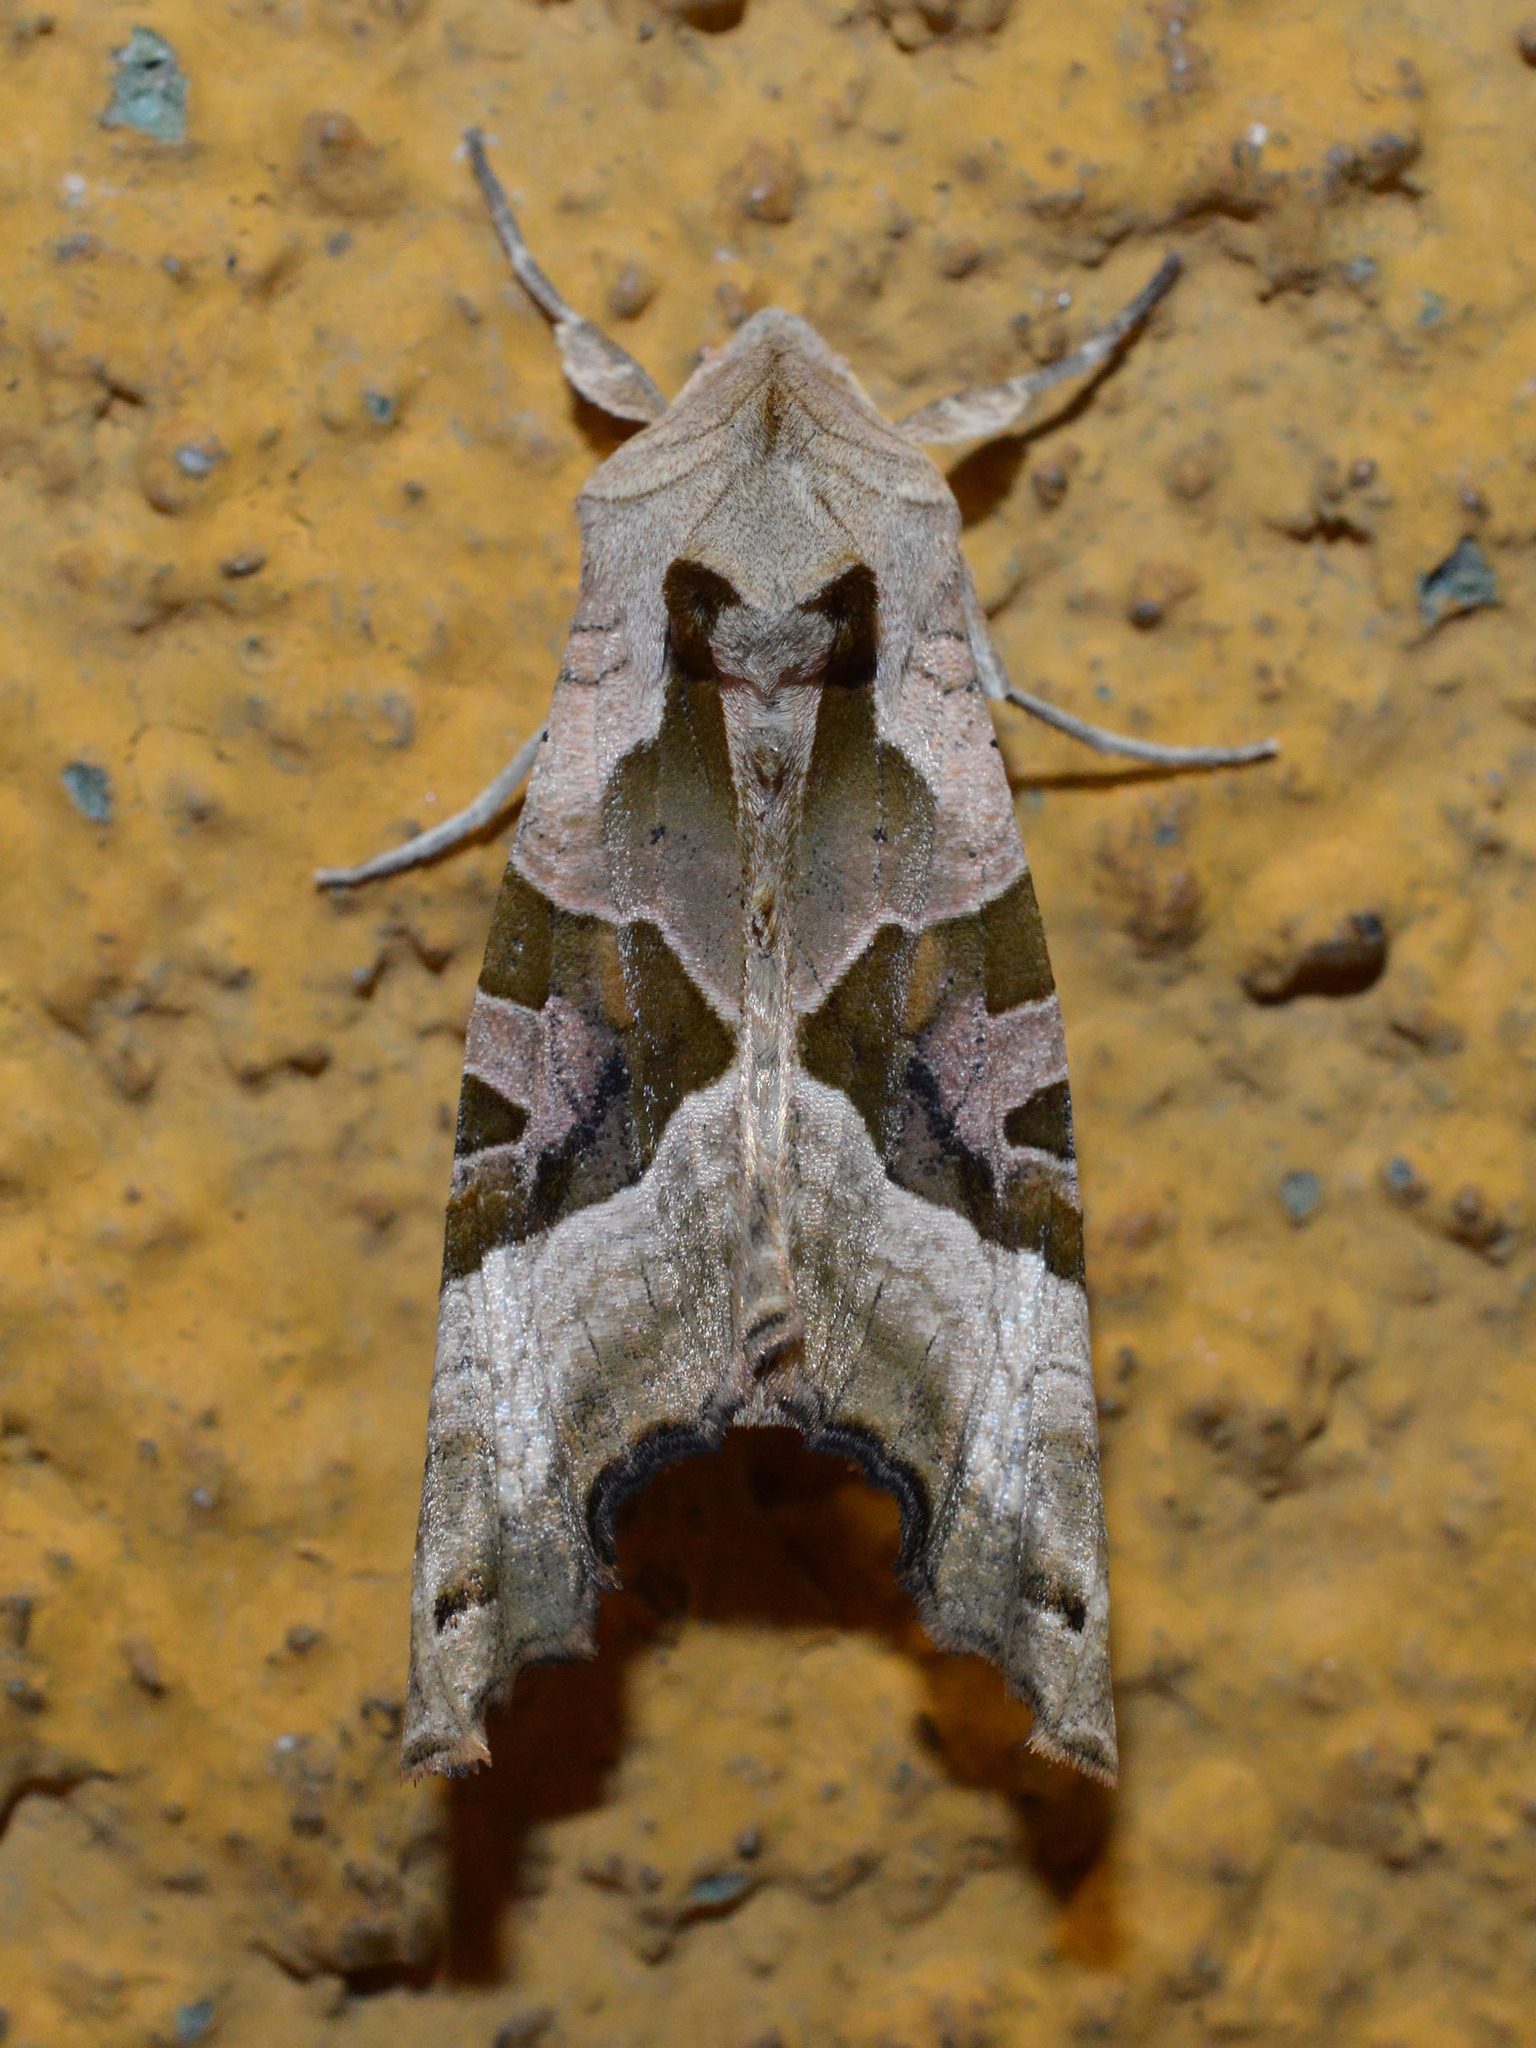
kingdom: Animalia
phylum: Arthropoda
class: Insecta
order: Lepidoptera
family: Noctuidae
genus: Phlogophora
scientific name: Phlogophora meticulosa
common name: Angle shades
